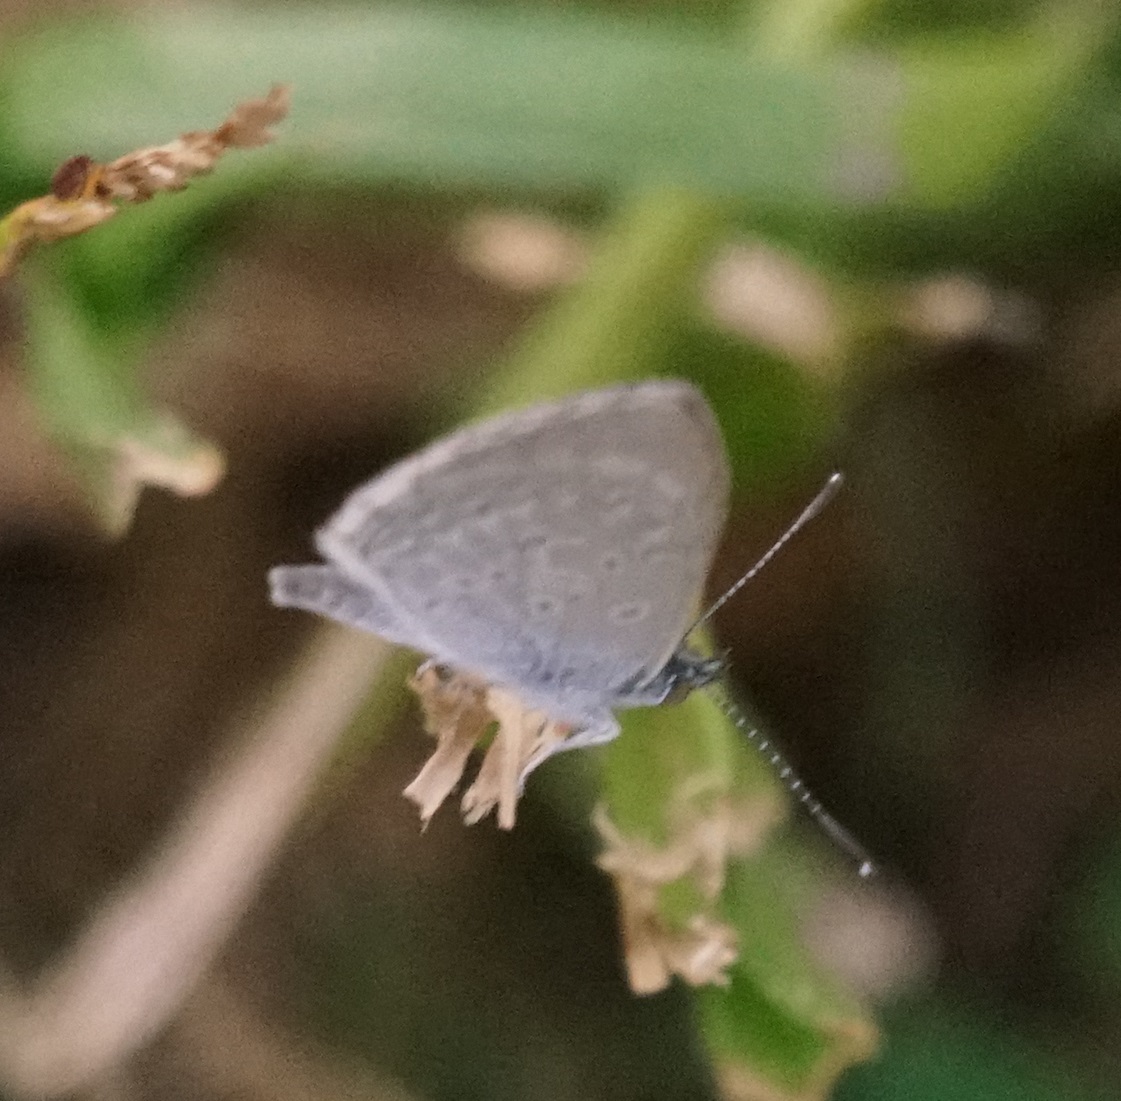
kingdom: Animalia
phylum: Arthropoda
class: Insecta
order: Lepidoptera
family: Lycaenidae
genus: Zizina
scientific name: Zizina labradus
